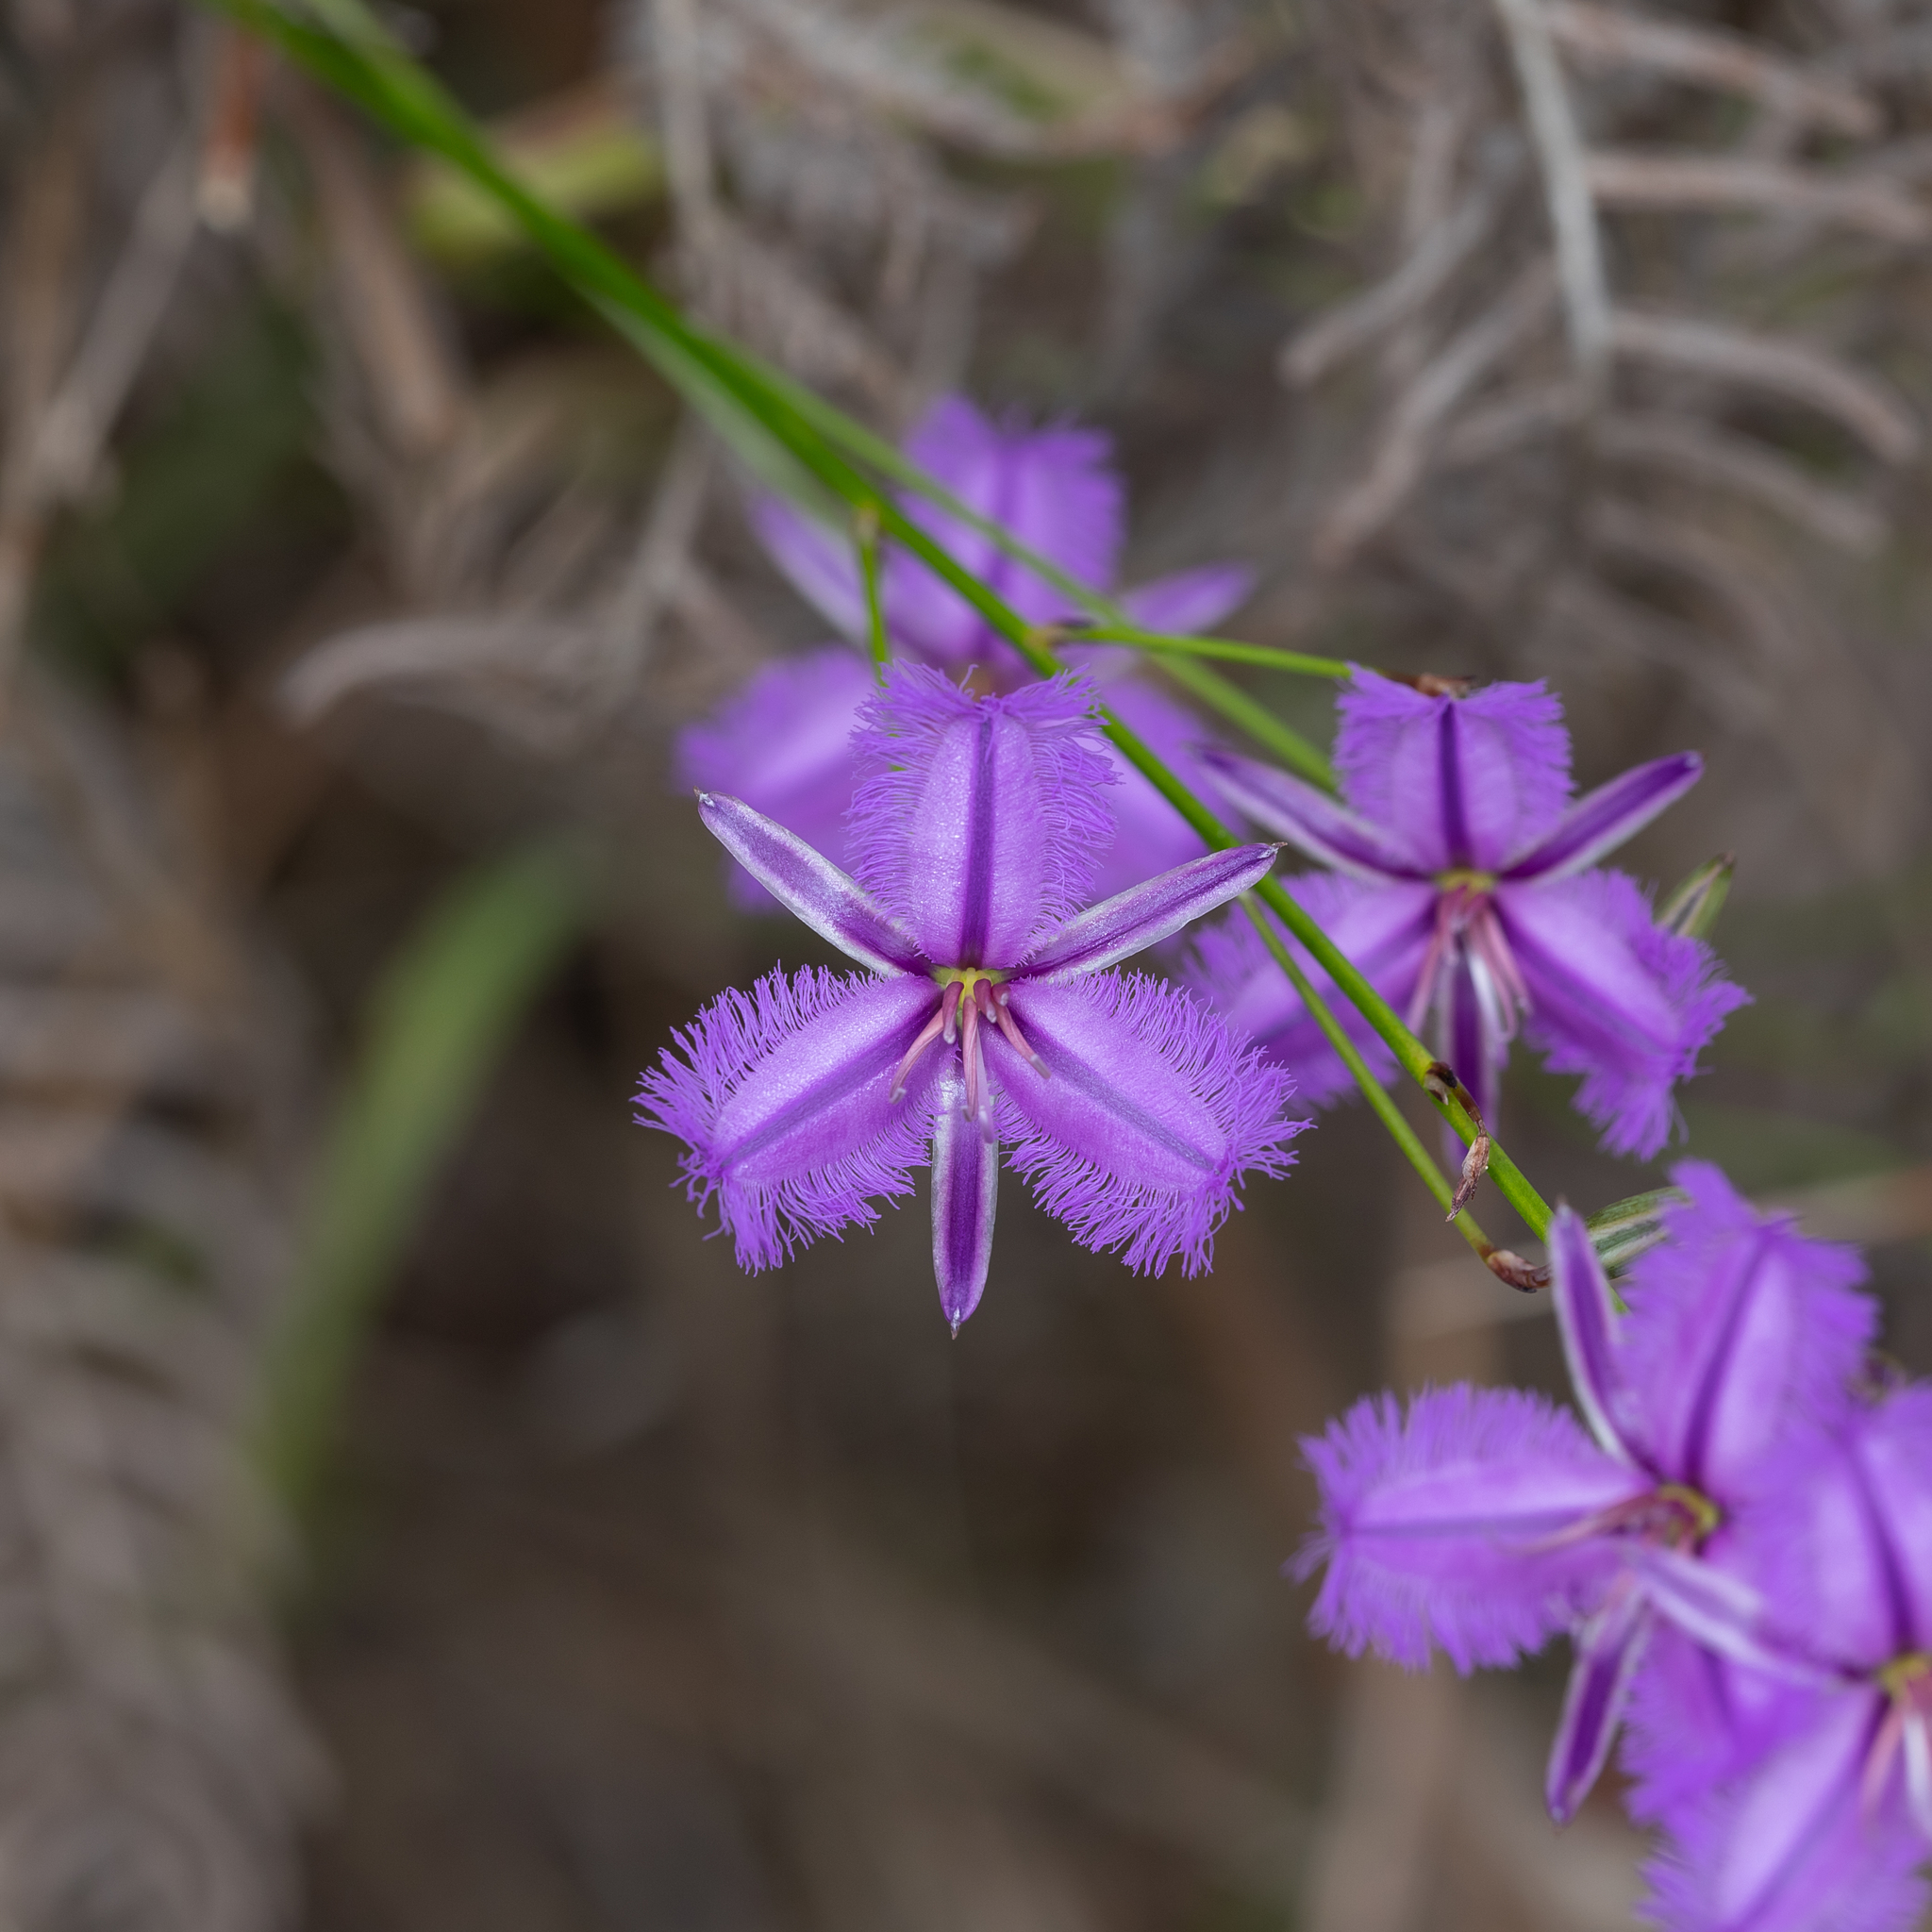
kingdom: Plantae
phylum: Tracheophyta
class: Liliopsida
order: Asparagales
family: Asparagaceae
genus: Thysanotus
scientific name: Thysanotus racemoides
